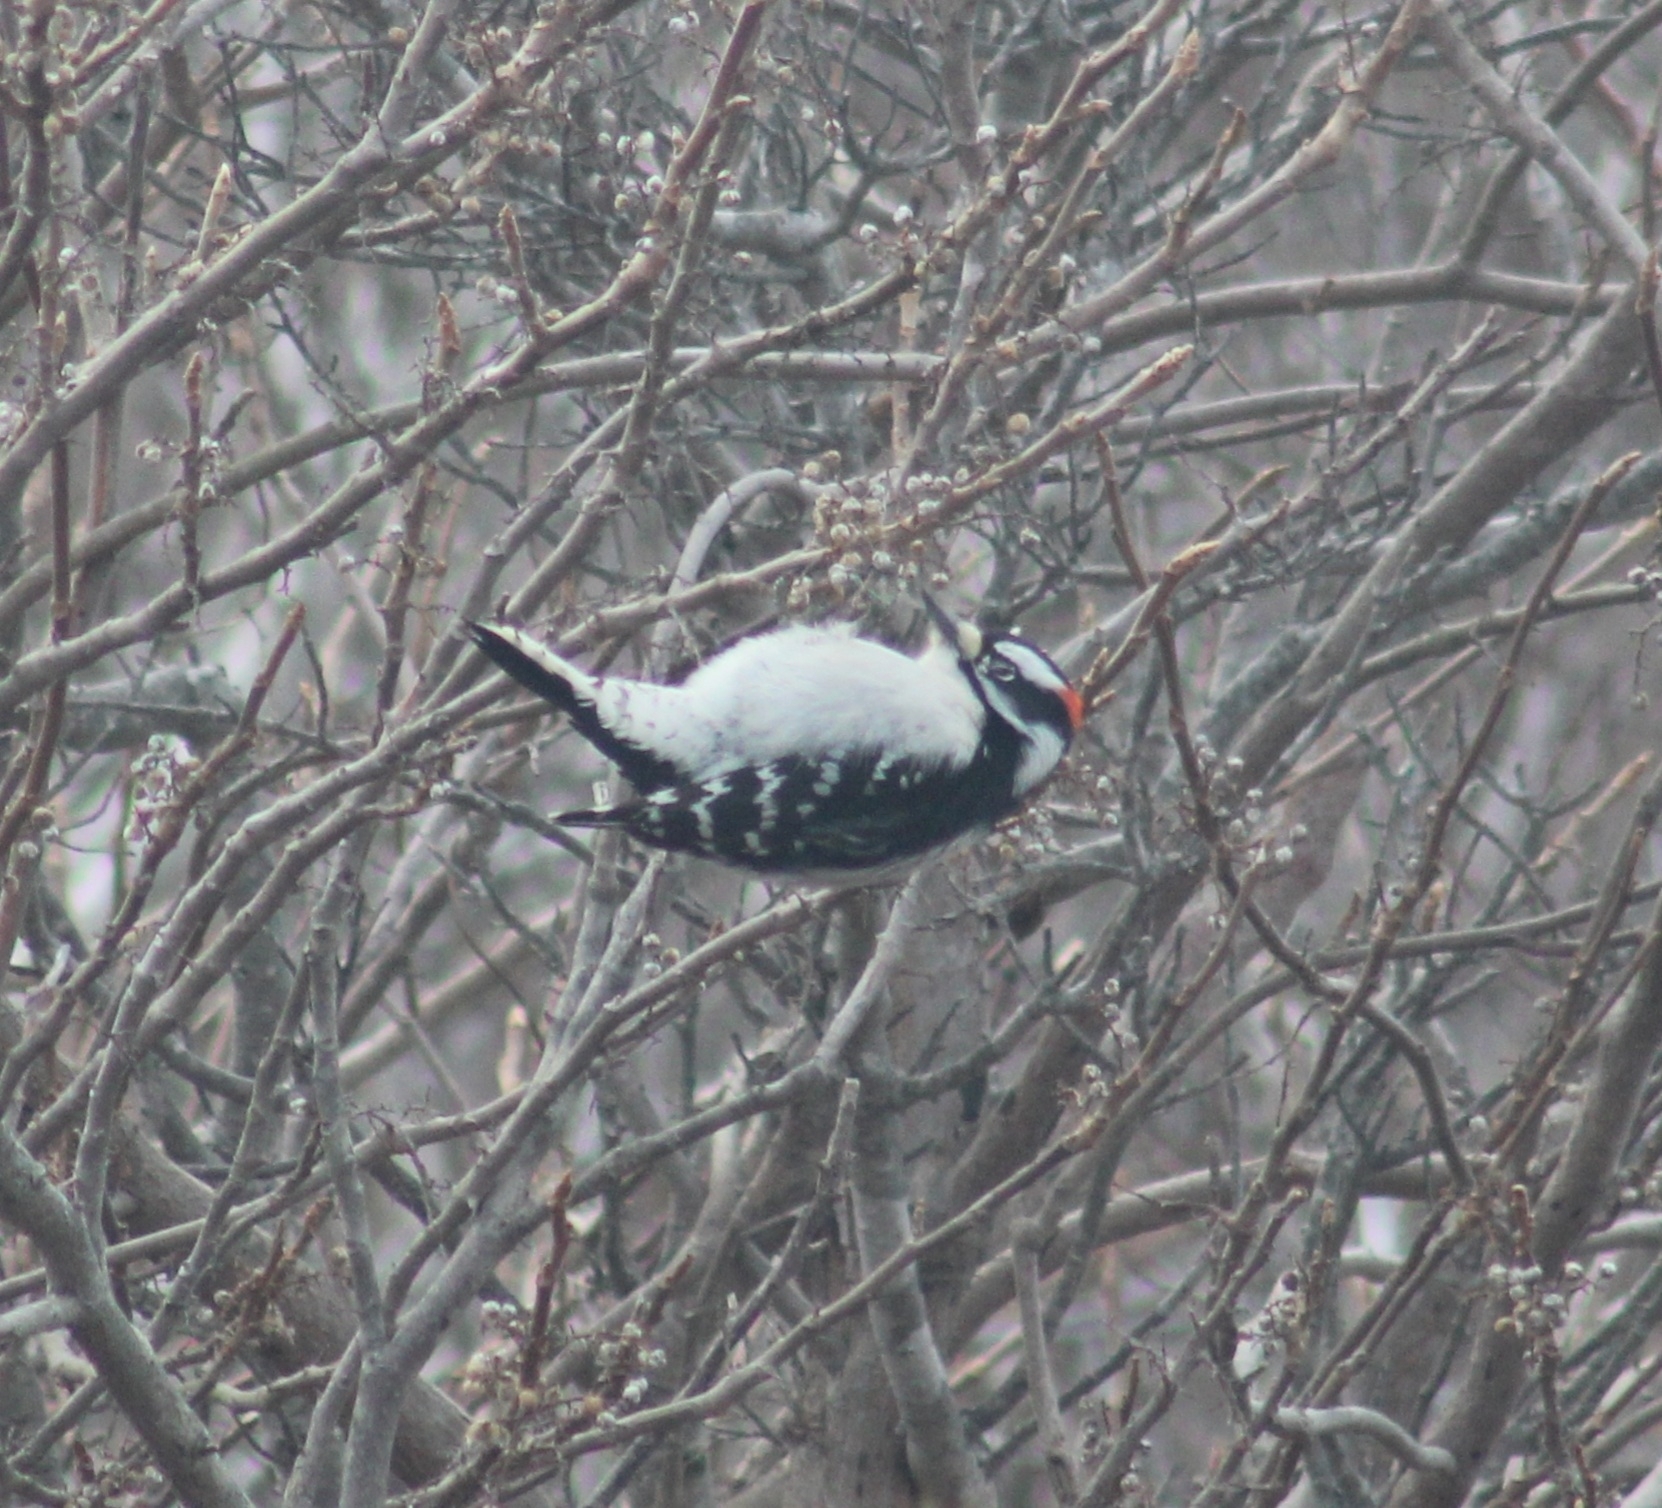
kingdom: Animalia
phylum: Chordata
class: Aves
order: Piciformes
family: Picidae
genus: Dryobates
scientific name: Dryobates pubescens
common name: Downy woodpecker
